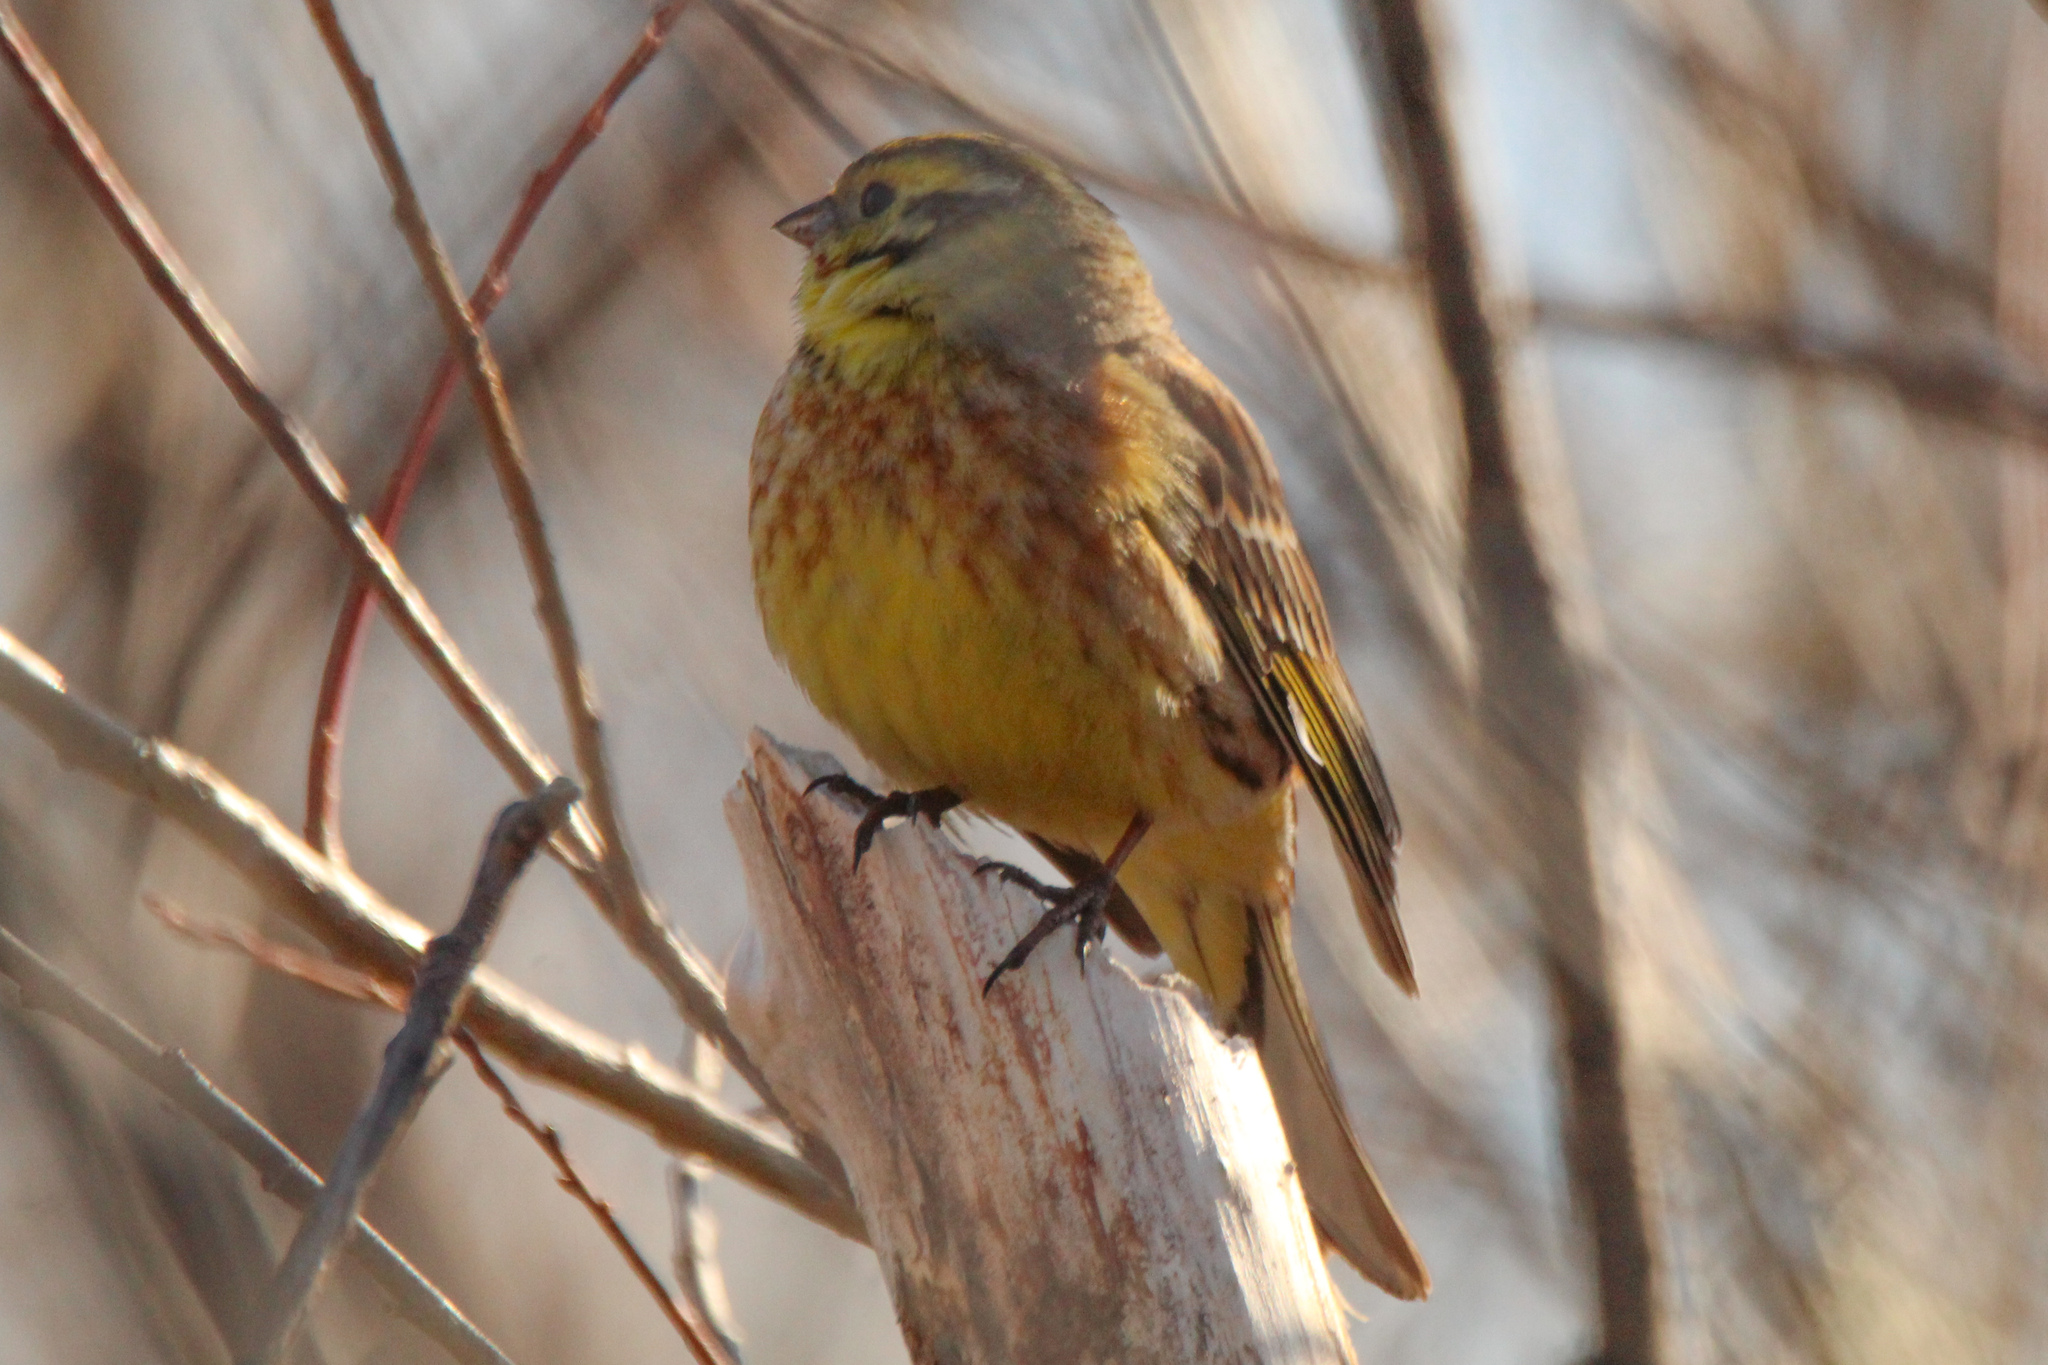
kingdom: Animalia
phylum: Chordata
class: Aves
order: Passeriformes
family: Emberizidae
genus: Emberiza
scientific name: Emberiza
